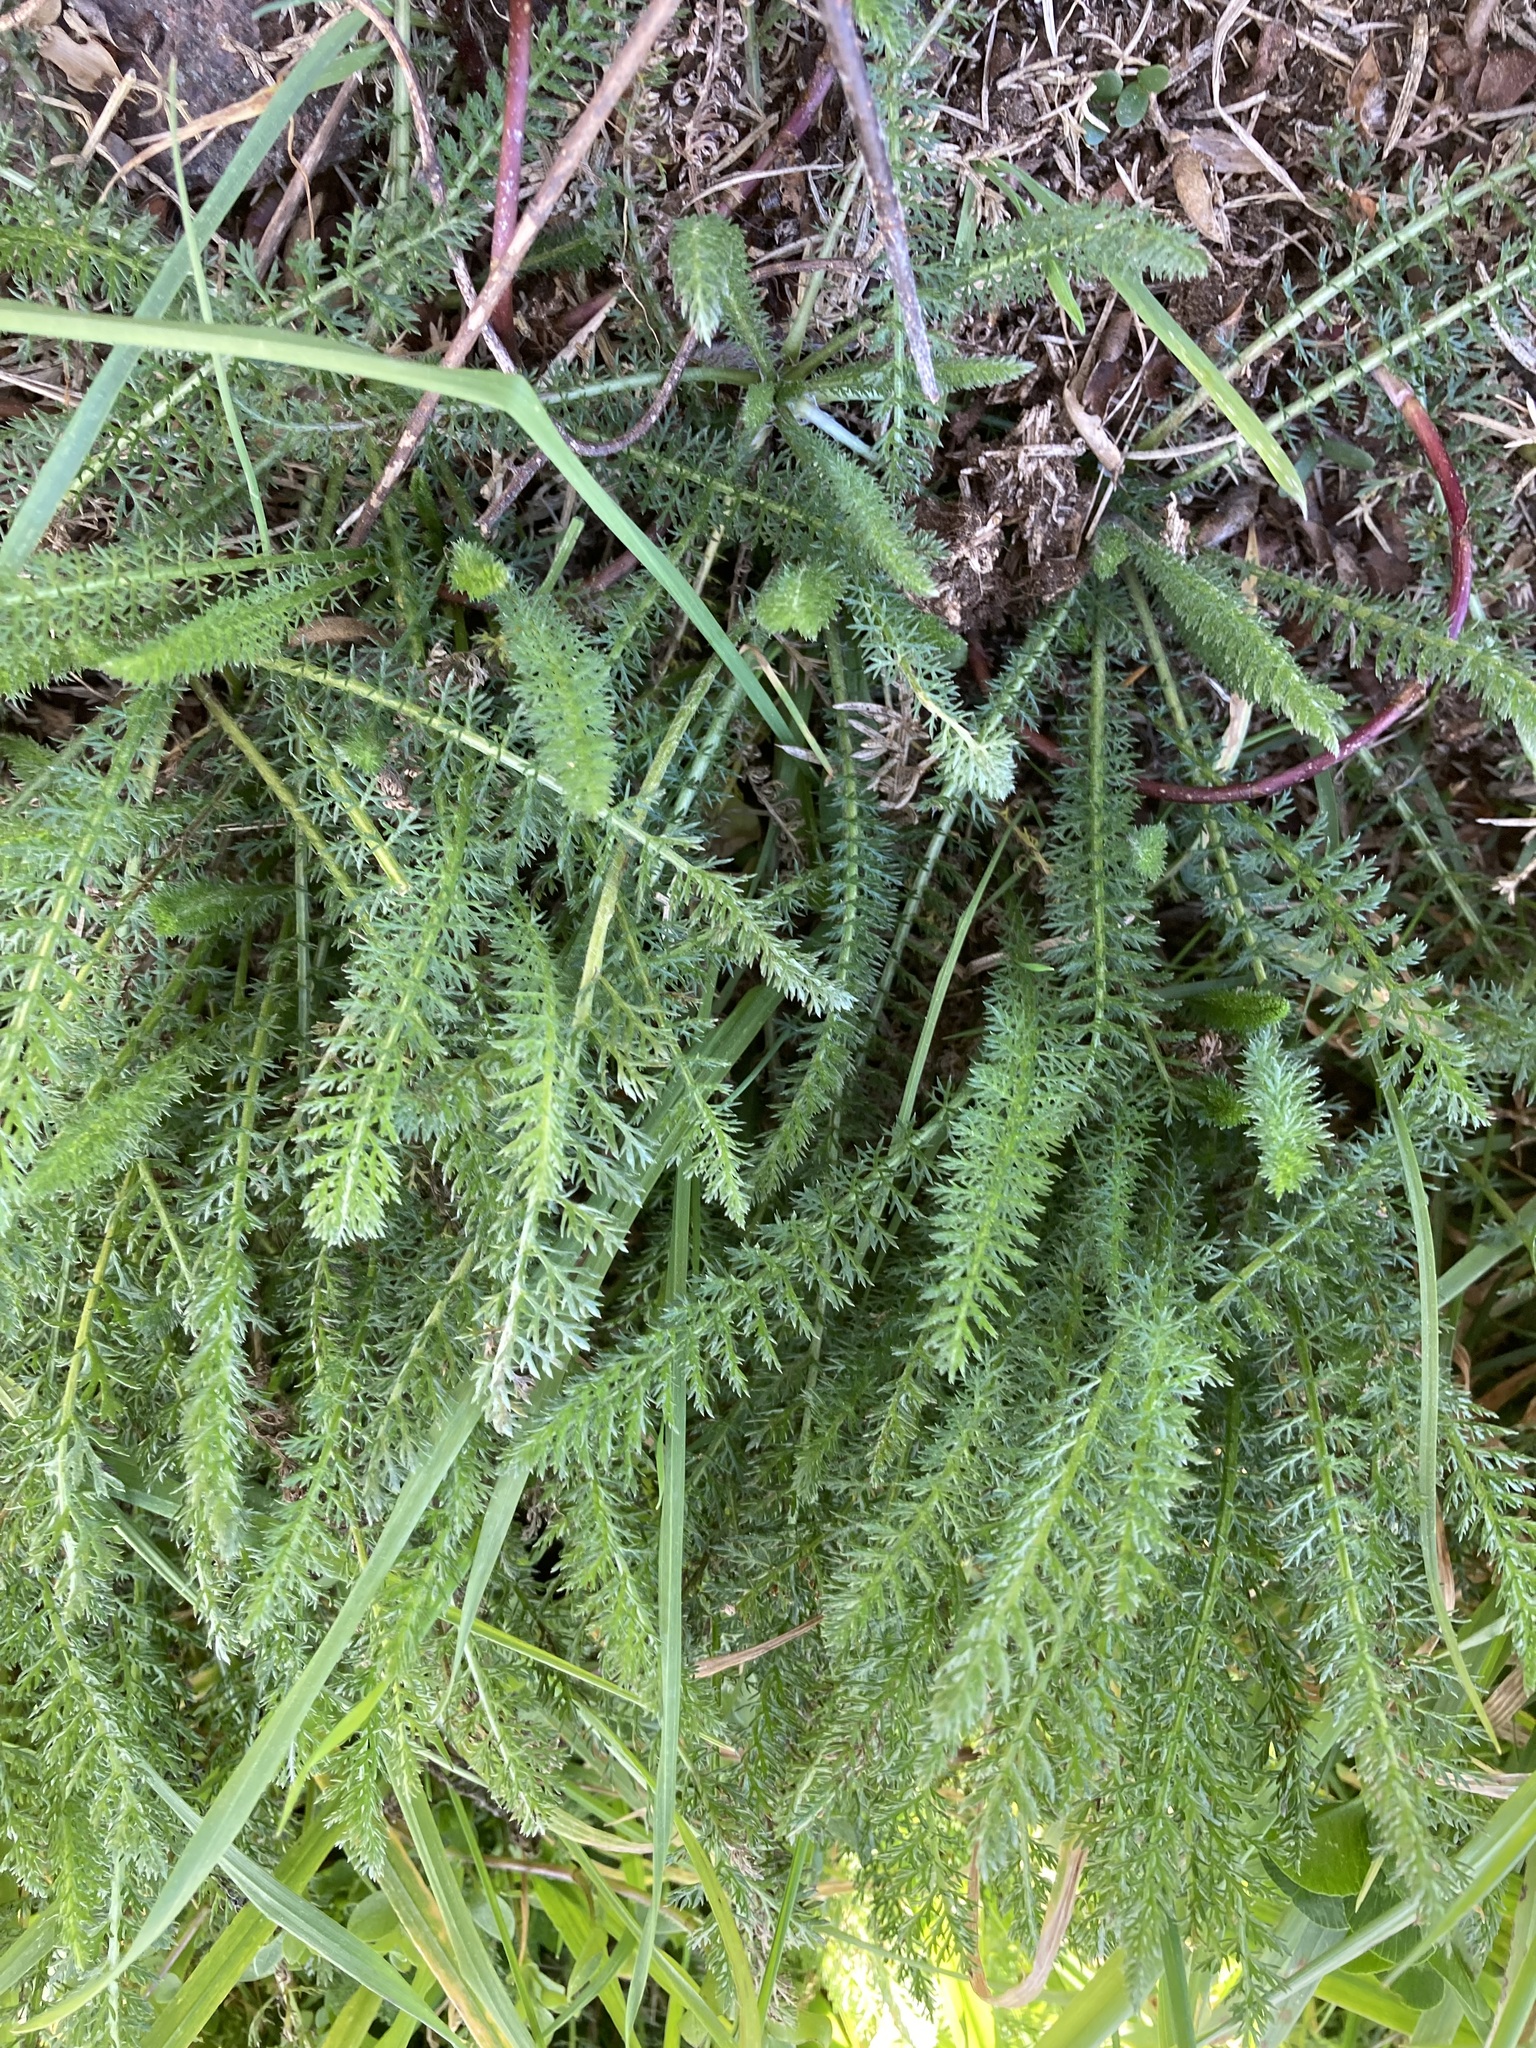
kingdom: Plantae
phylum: Tracheophyta
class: Magnoliopsida
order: Asterales
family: Asteraceae
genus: Achillea
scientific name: Achillea millefolium
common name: Yarrow
